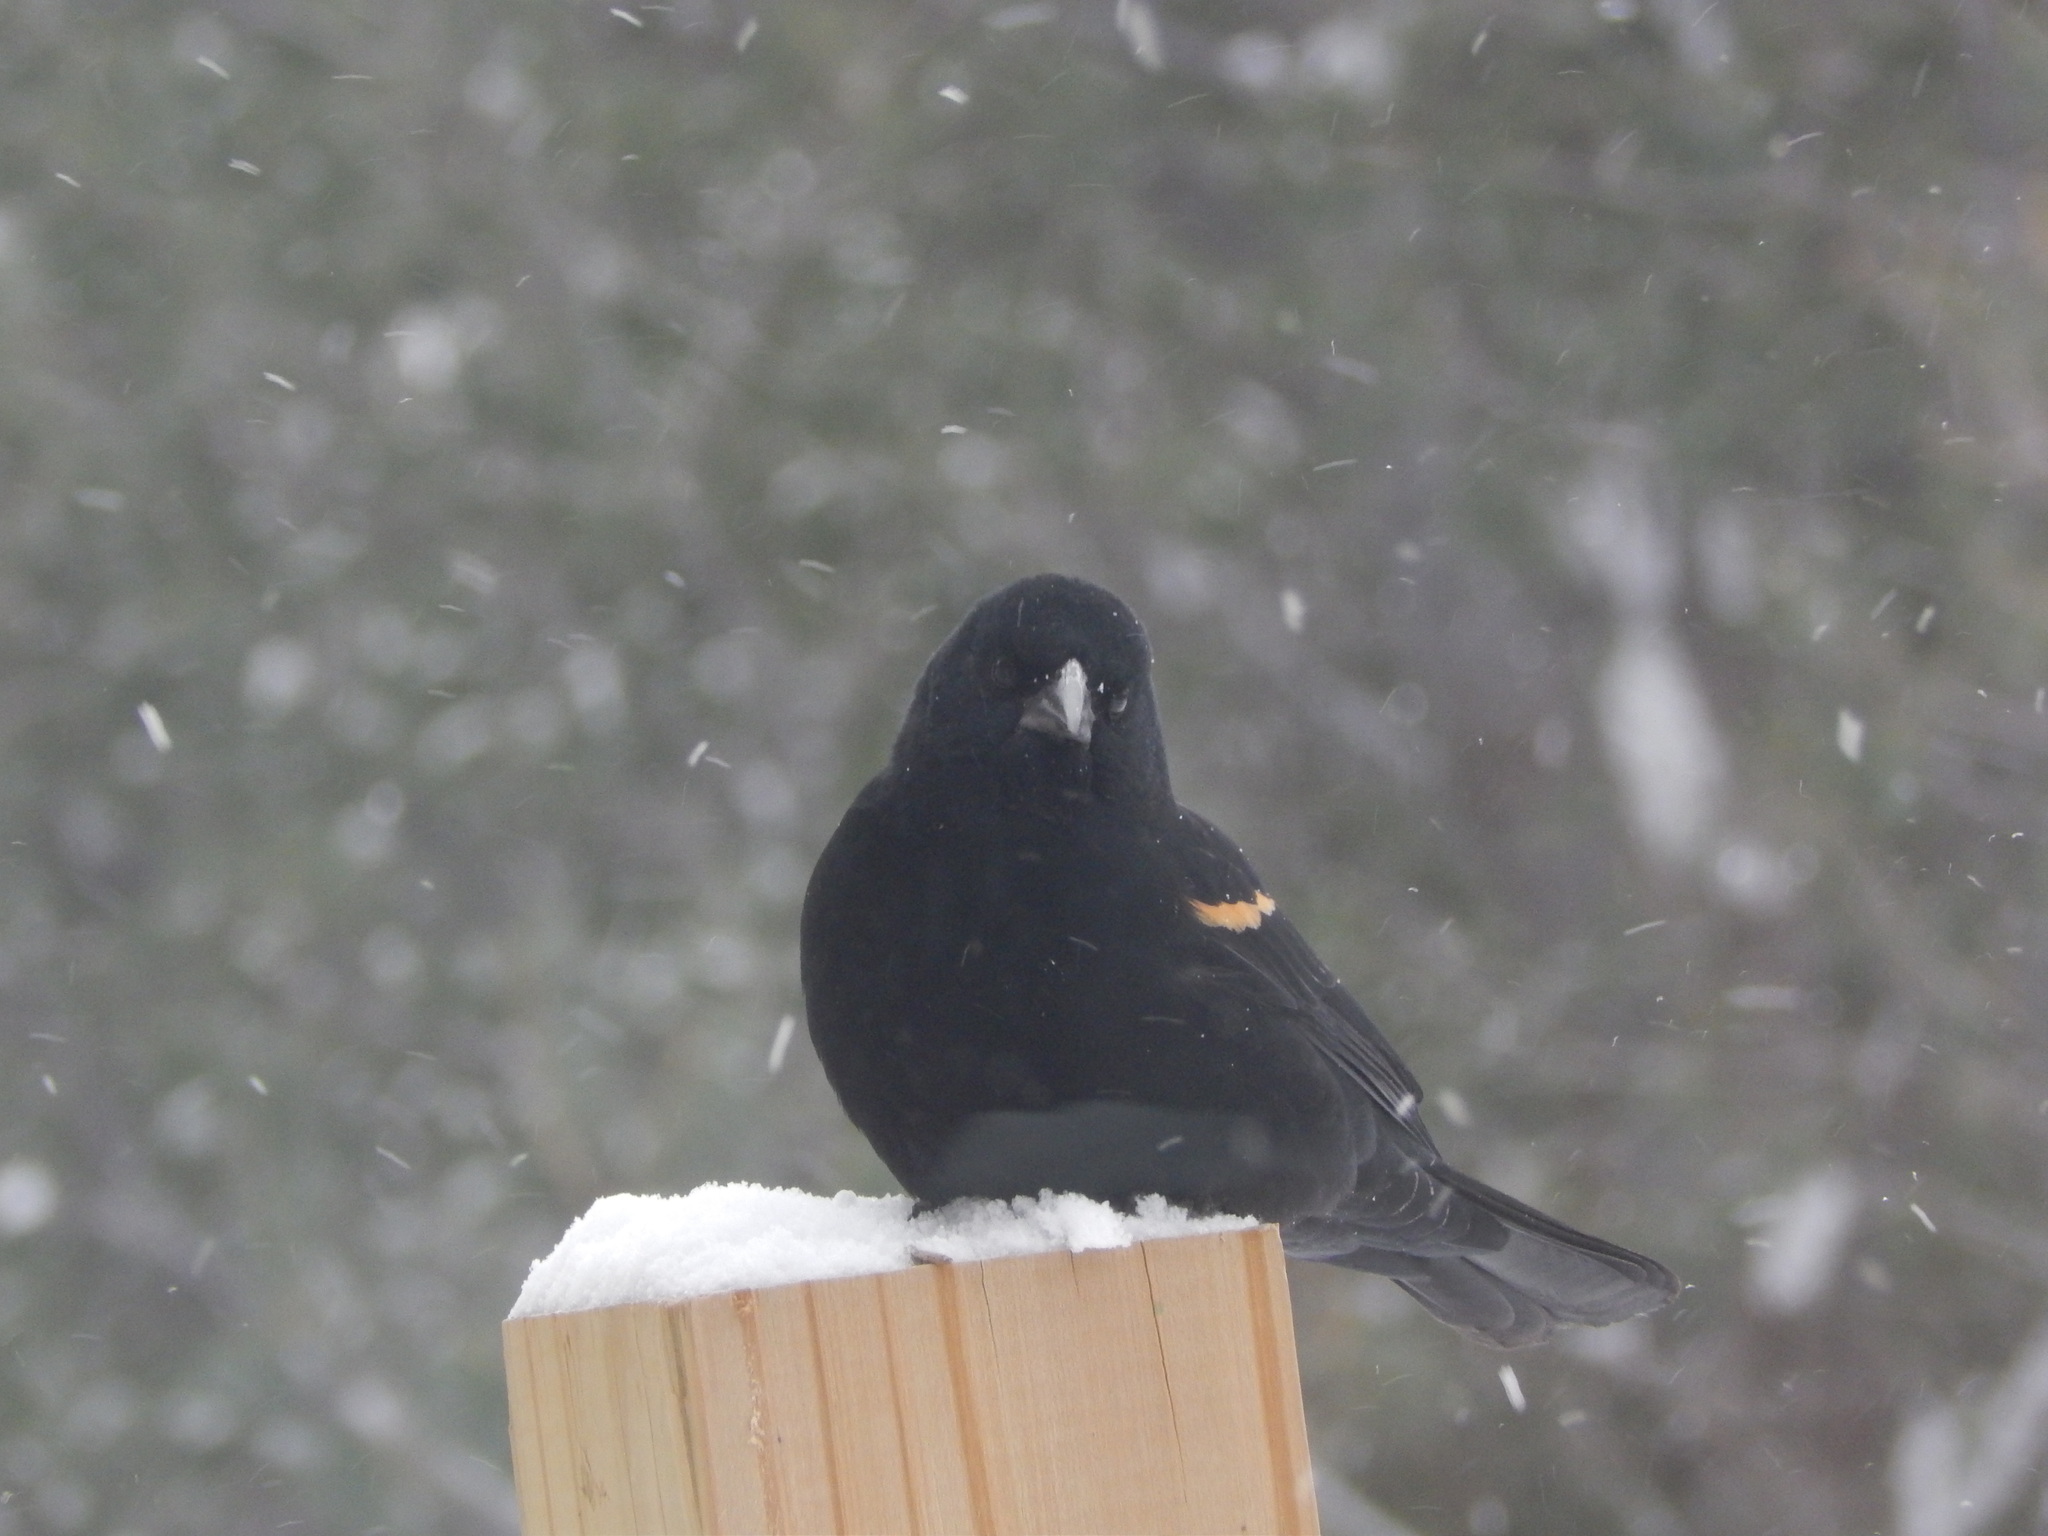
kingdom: Animalia
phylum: Chordata
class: Aves
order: Passeriformes
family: Icteridae
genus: Agelaius
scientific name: Agelaius phoeniceus
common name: Red-winged blackbird
